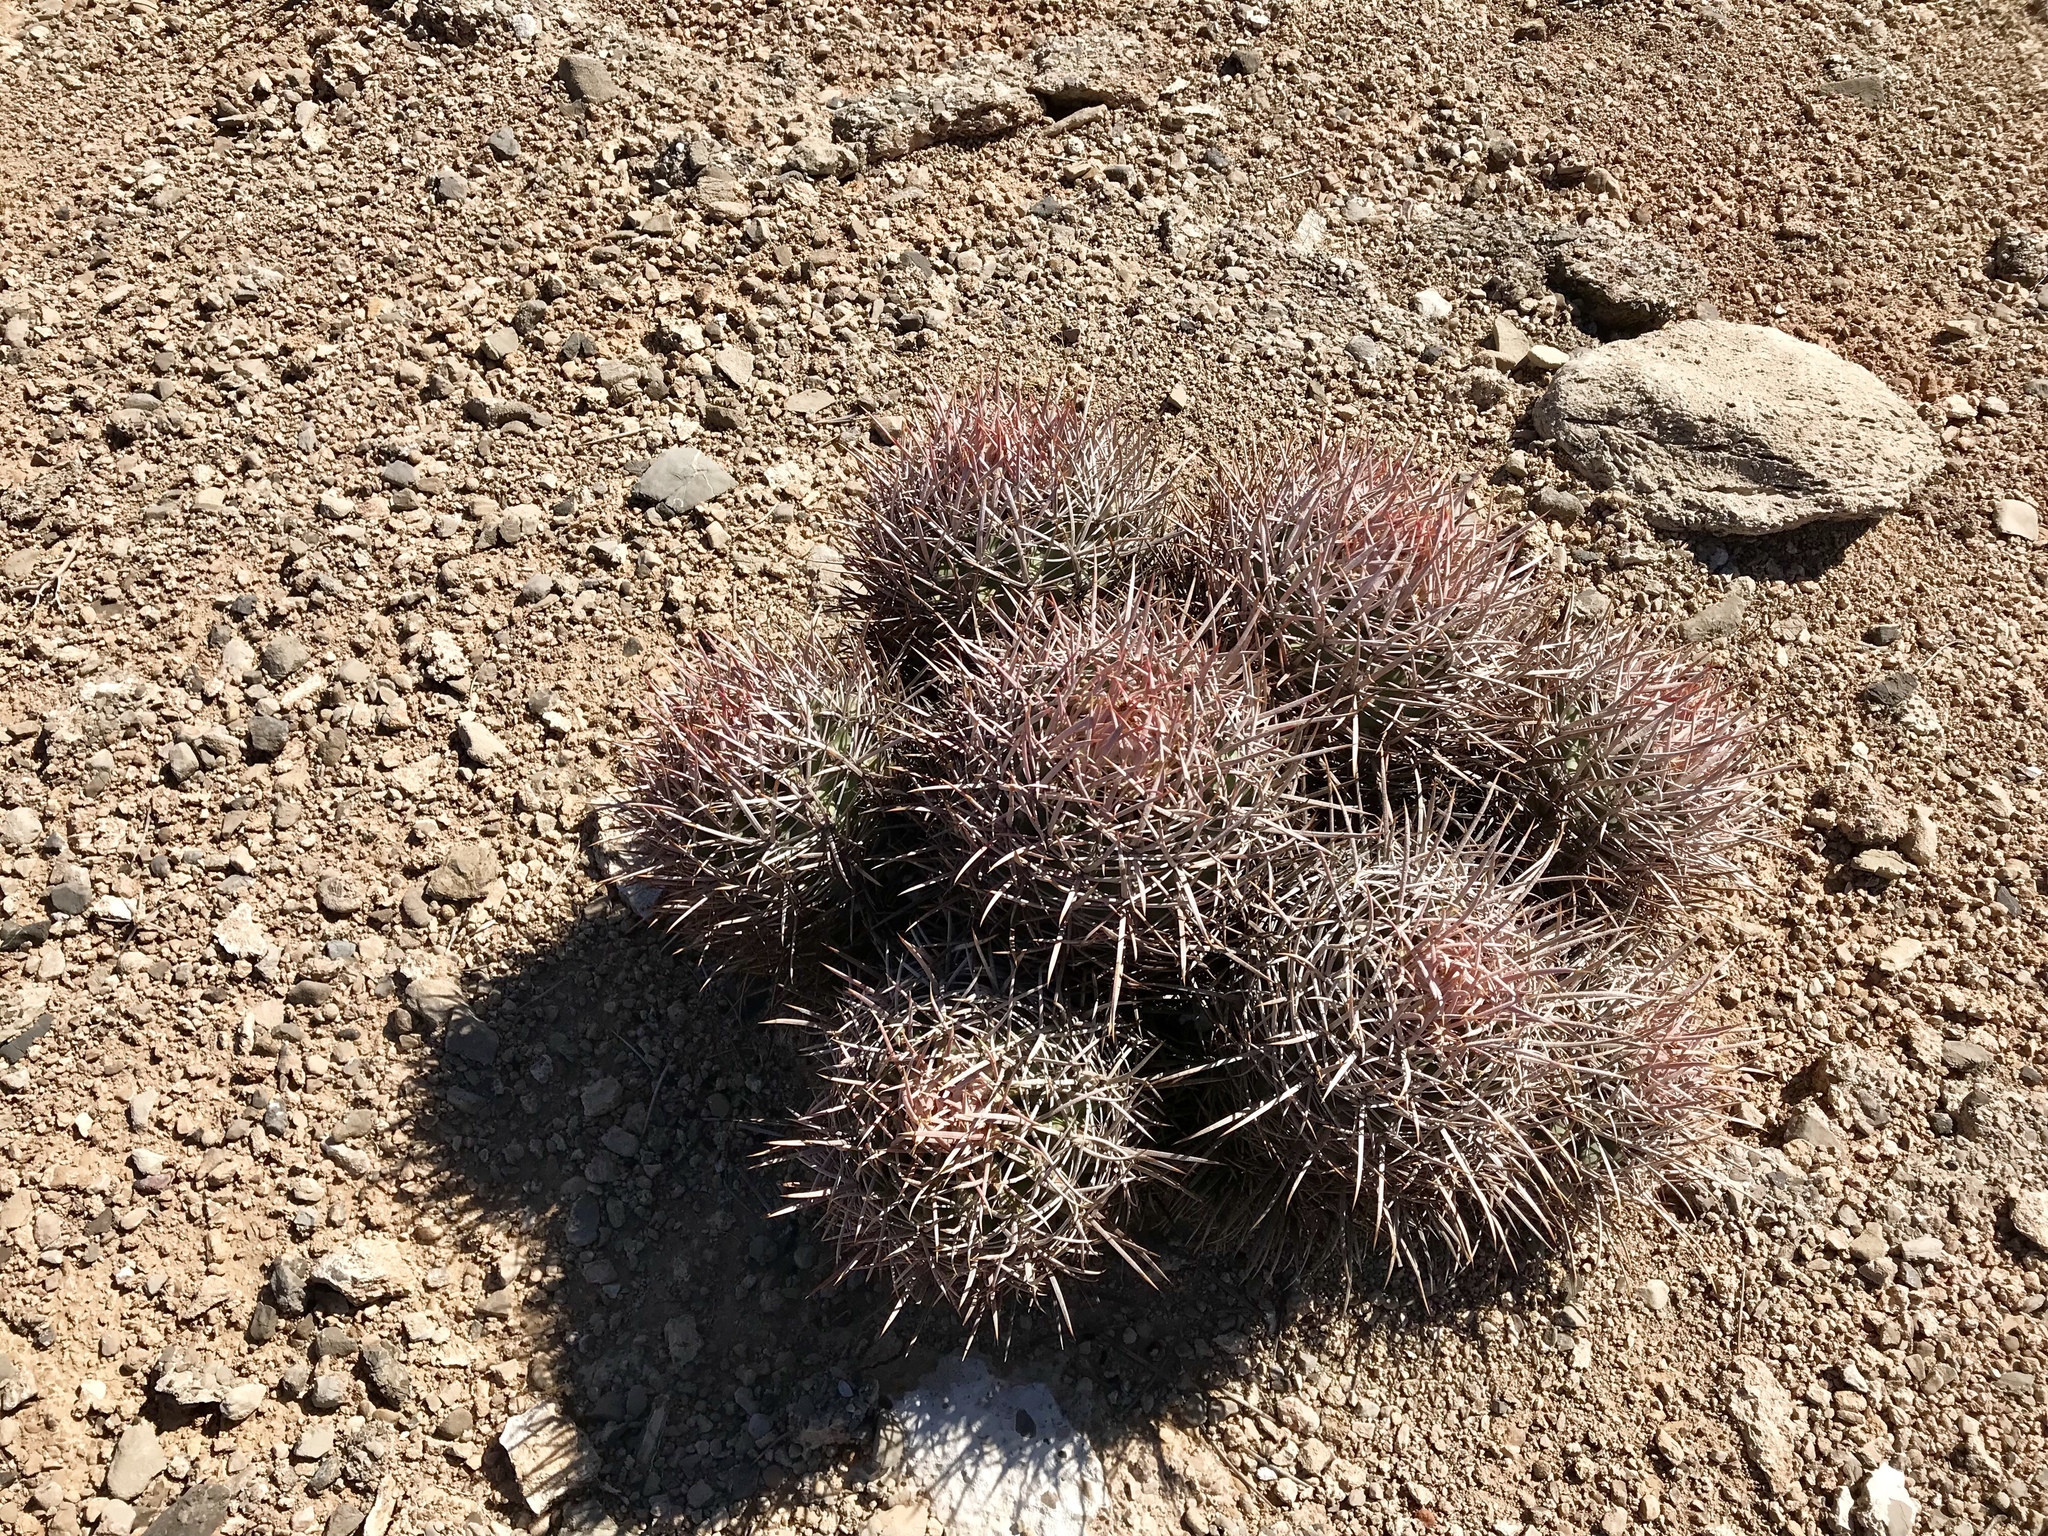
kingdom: Plantae
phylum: Tracheophyta
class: Magnoliopsida
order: Caryophyllales
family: Cactaceae
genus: Echinocactus
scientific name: Echinocactus polycephalus
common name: Cottontop cactus
